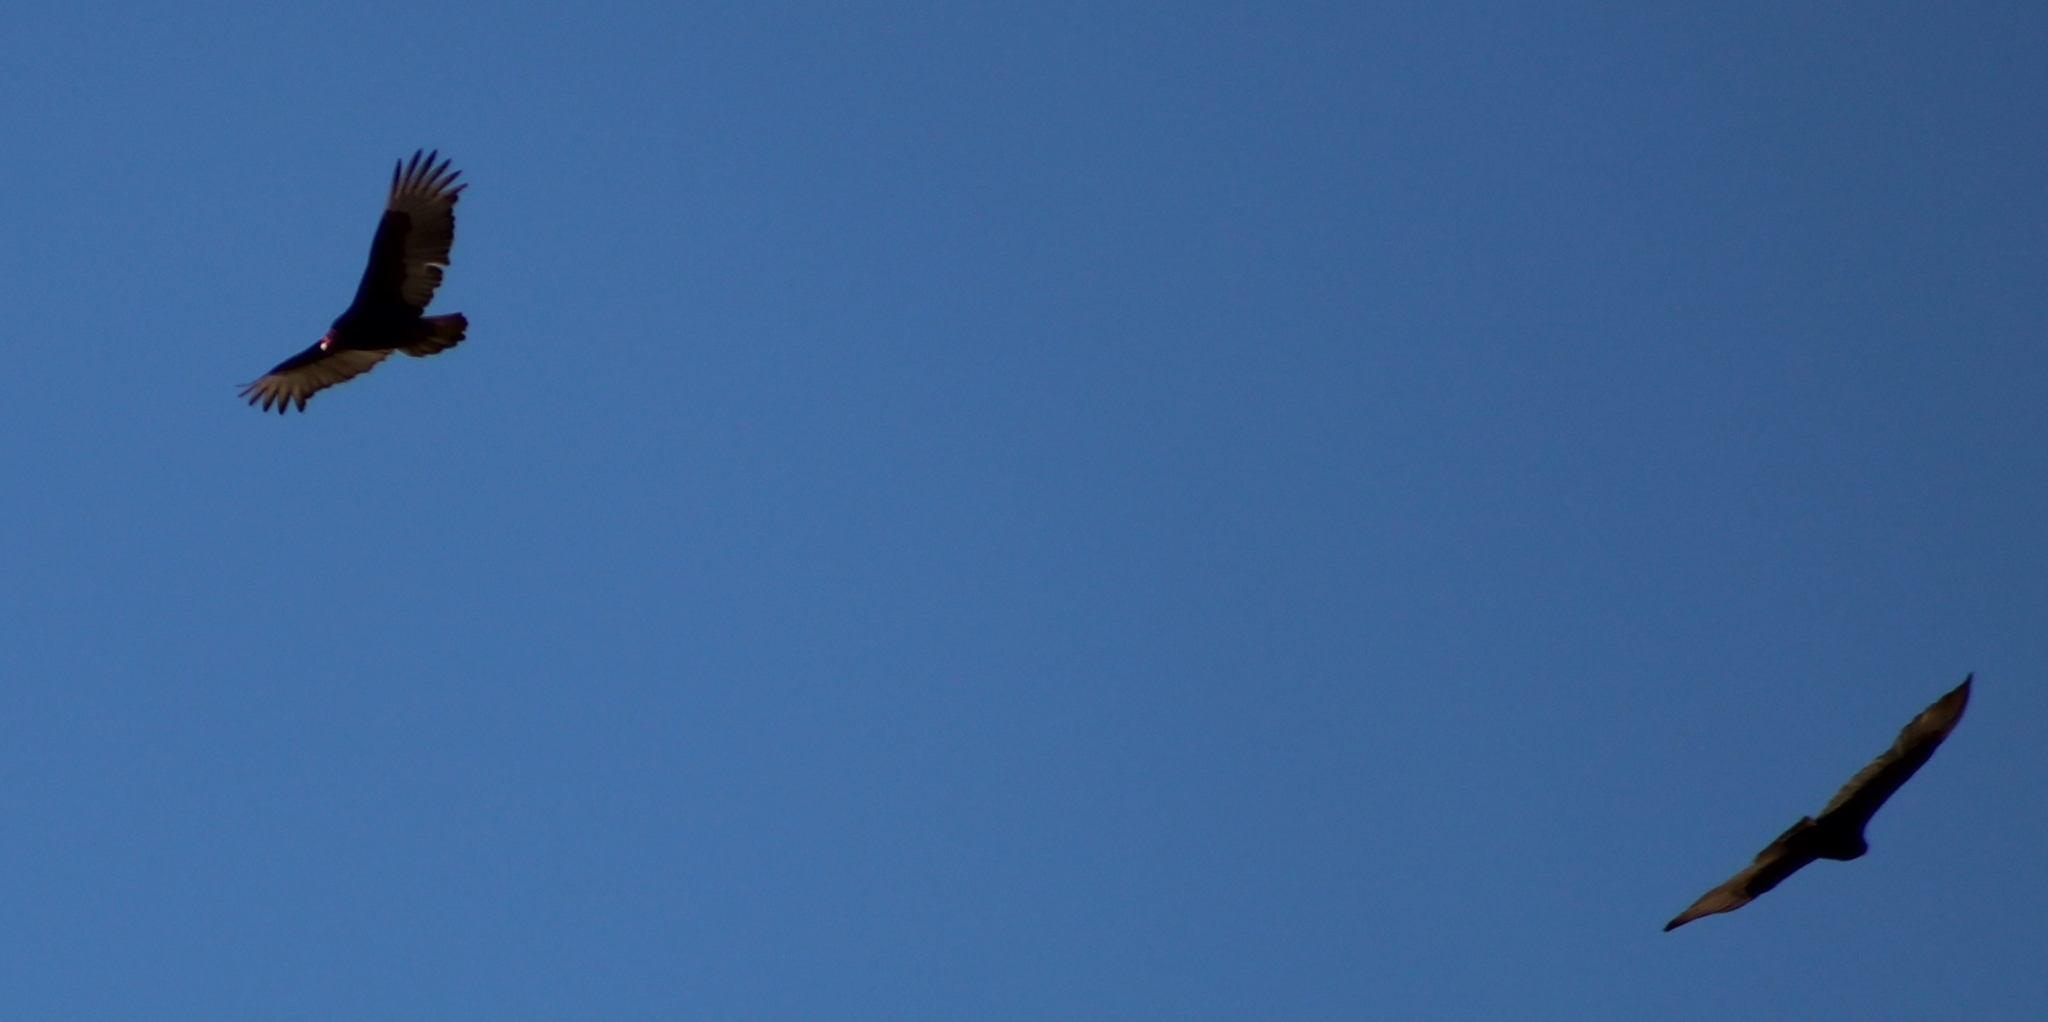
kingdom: Animalia
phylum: Chordata
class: Aves
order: Accipitriformes
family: Cathartidae
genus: Cathartes
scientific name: Cathartes aura
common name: Turkey vulture
